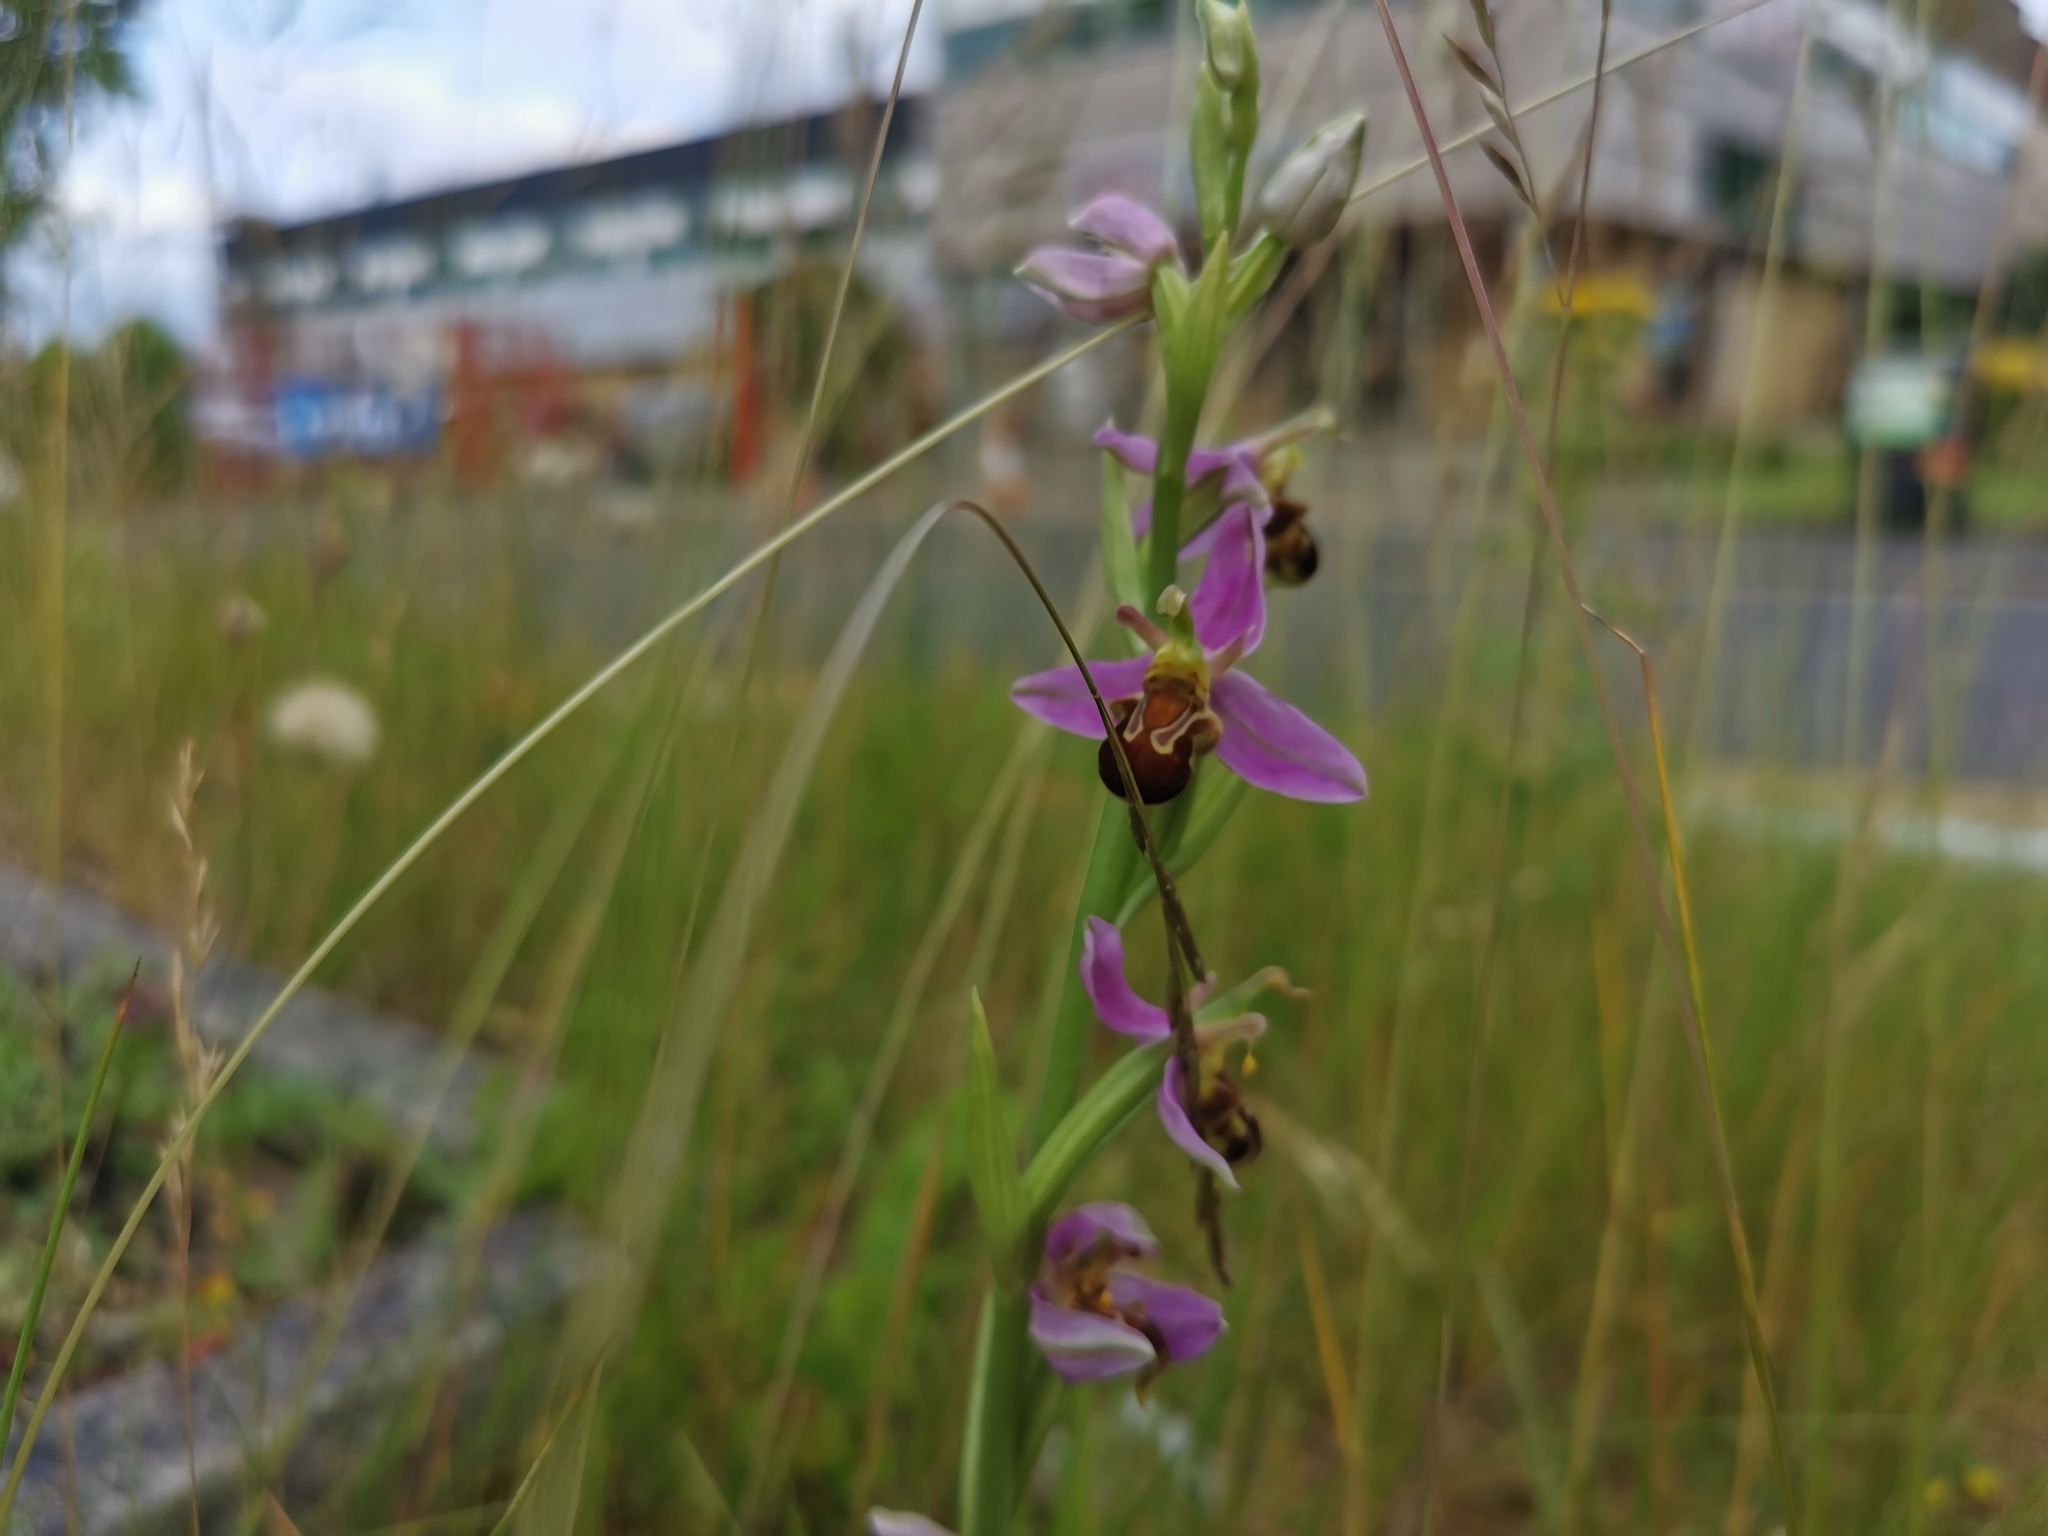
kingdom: Plantae
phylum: Tracheophyta
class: Liliopsida
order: Asparagales
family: Orchidaceae
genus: Ophrys
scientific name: Ophrys apifera
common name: Bee orchid
